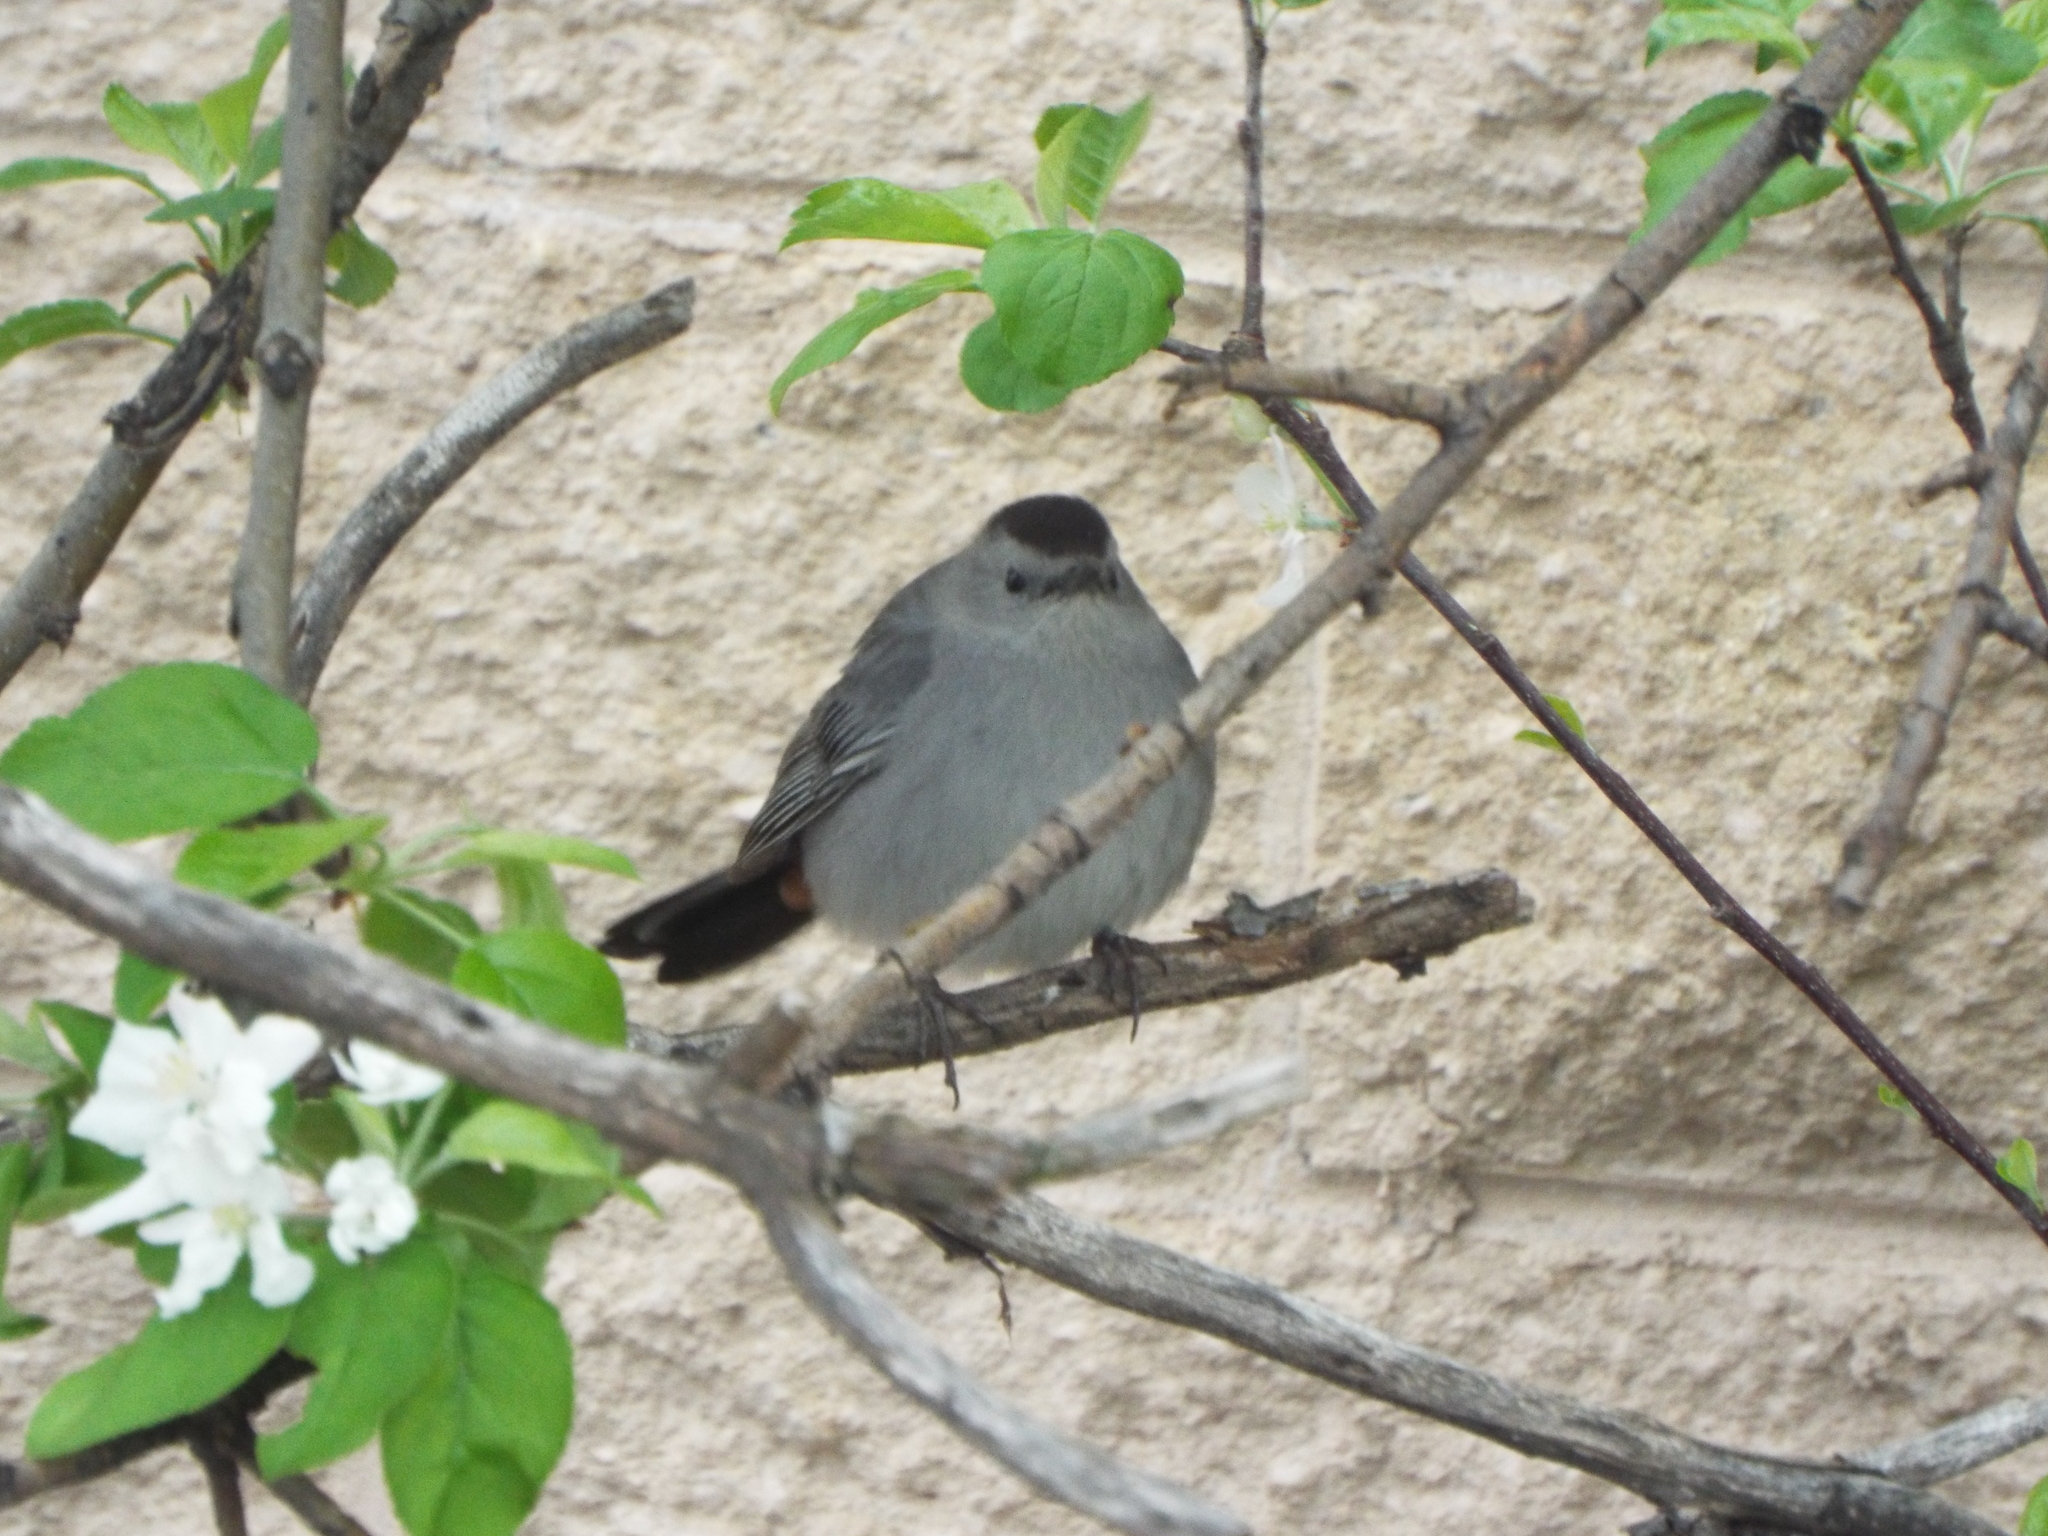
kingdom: Animalia
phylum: Chordata
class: Aves
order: Passeriformes
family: Mimidae
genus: Dumetella
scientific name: Dumetella carolinensis
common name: Gray catbird
